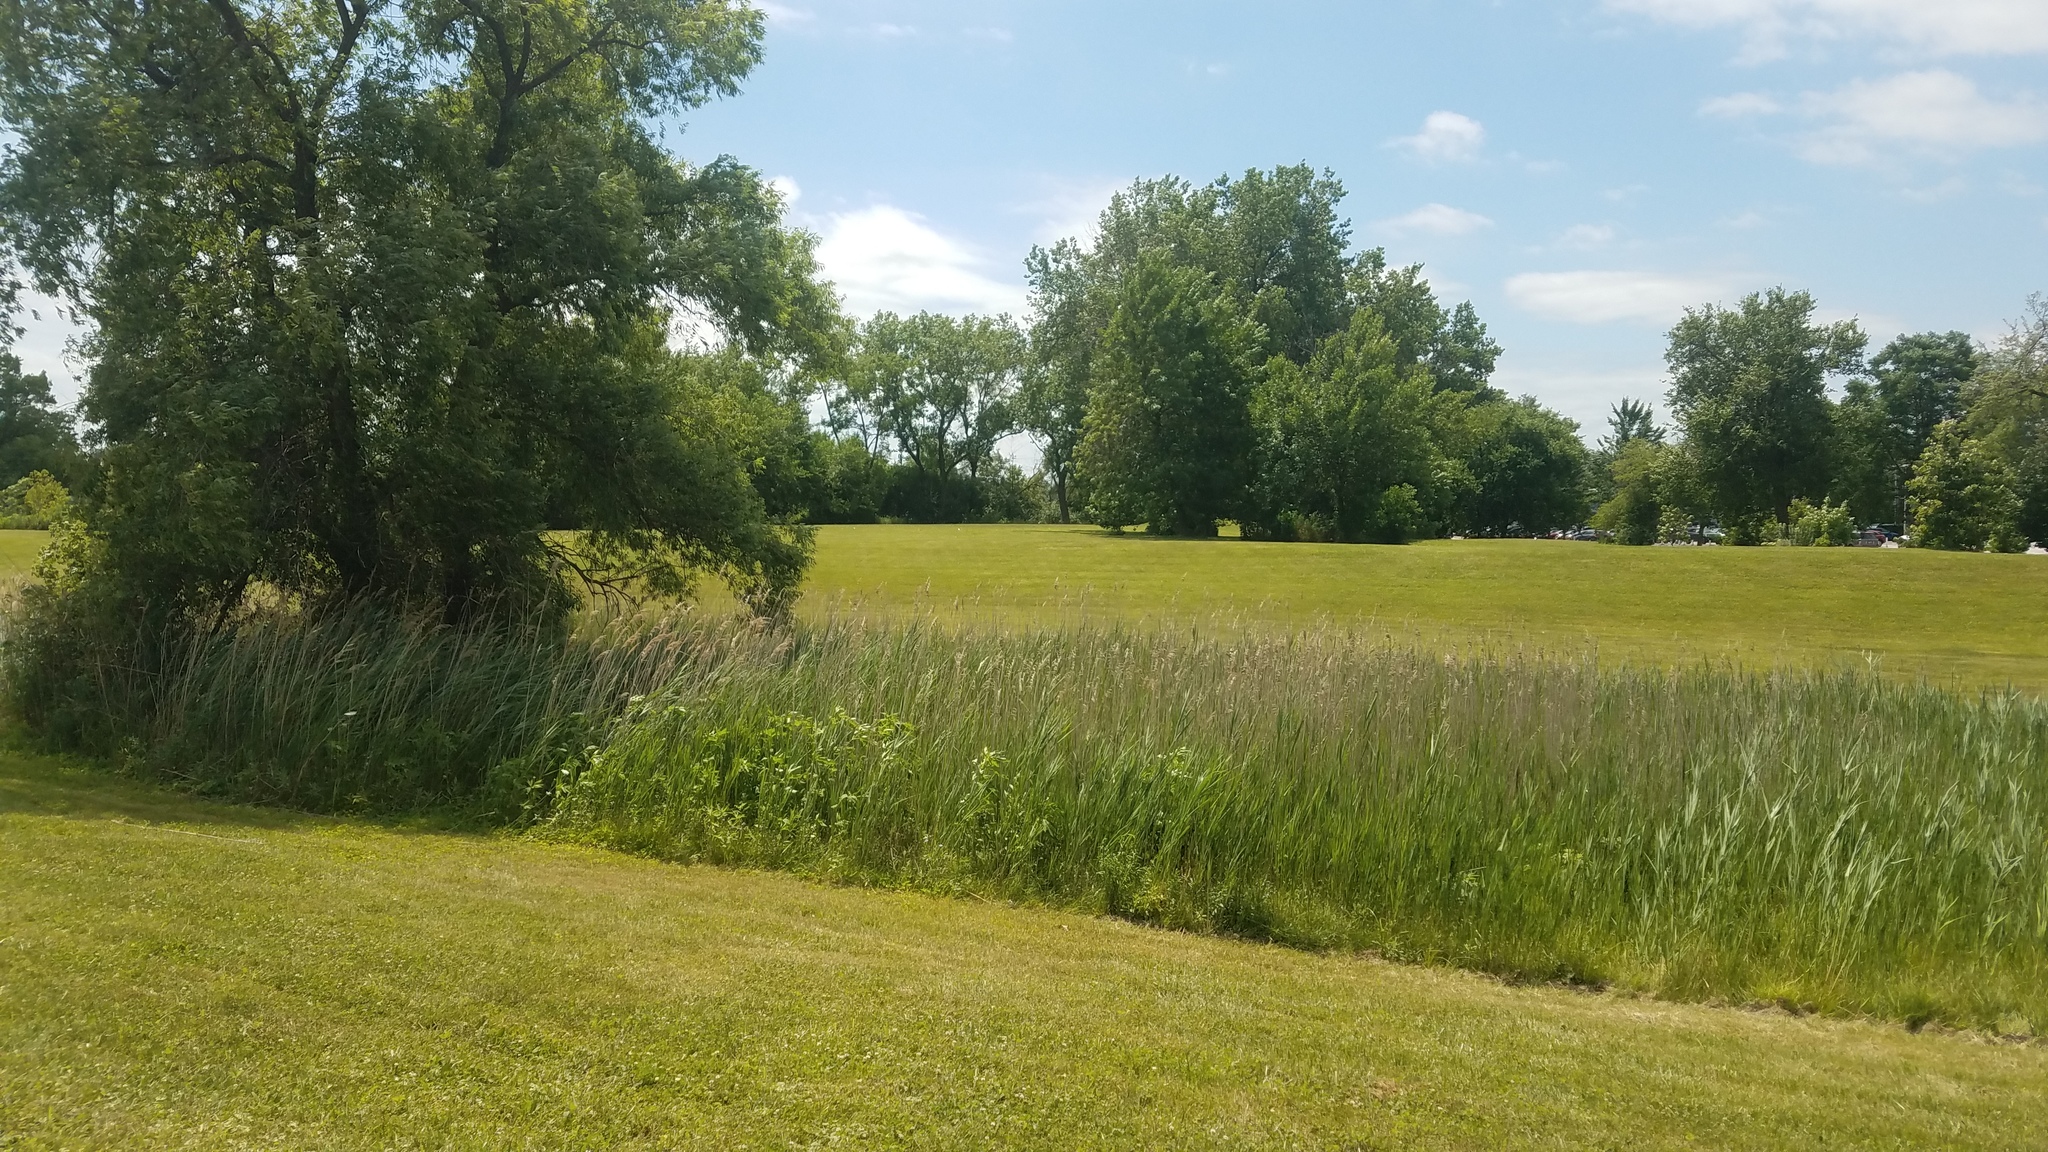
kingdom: Plantae
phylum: Tracheophyta
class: Liliopsida
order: Poales
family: Poaceae
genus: Phragmites
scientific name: Phragmites australis
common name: Common reed
